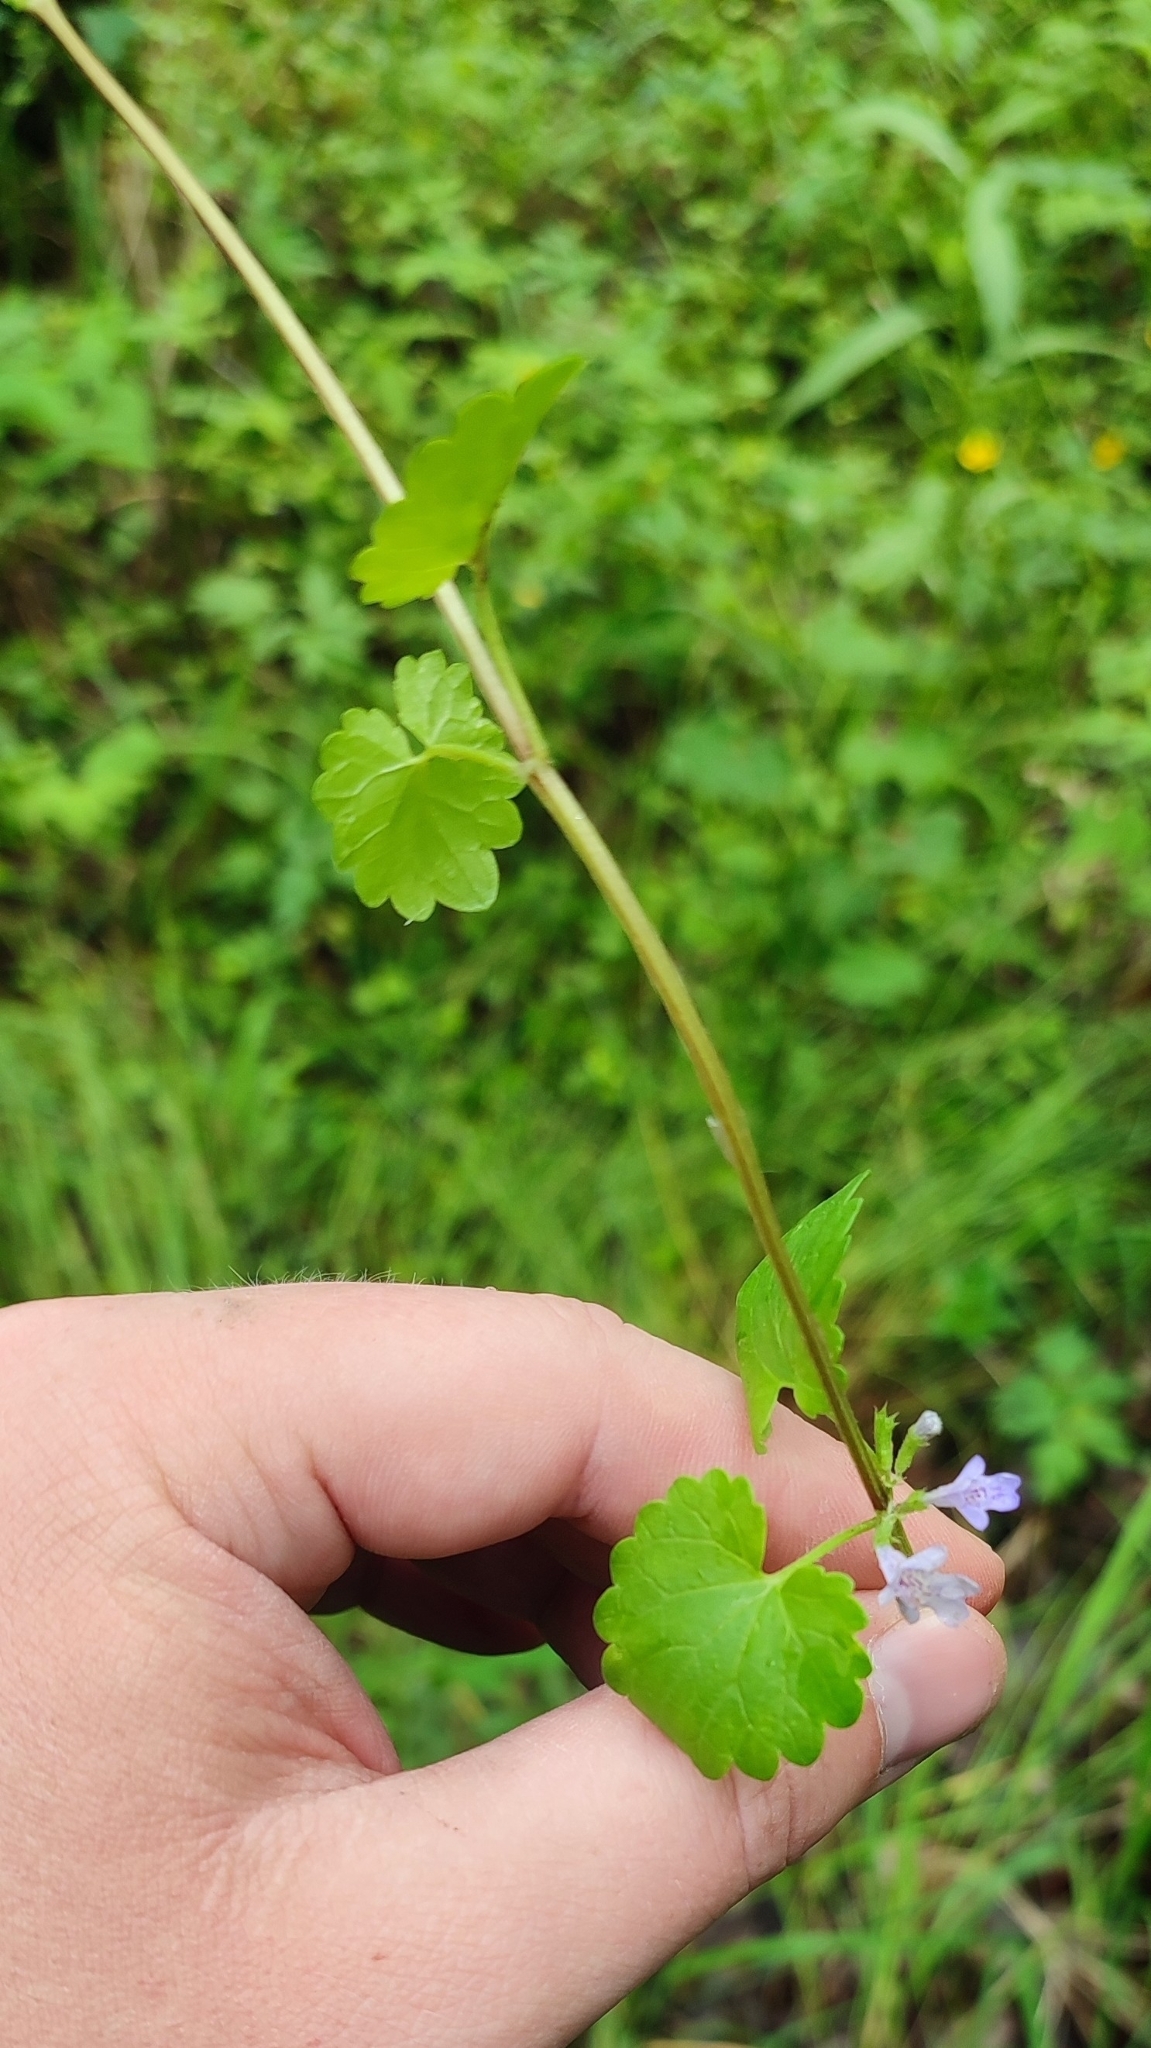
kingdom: Plantae
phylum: Tracheophyta
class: Magnoliopsida
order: Lamiales
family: Lamiaceae
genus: Glechoma
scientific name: Glechoma hederacea
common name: Ground ivy
